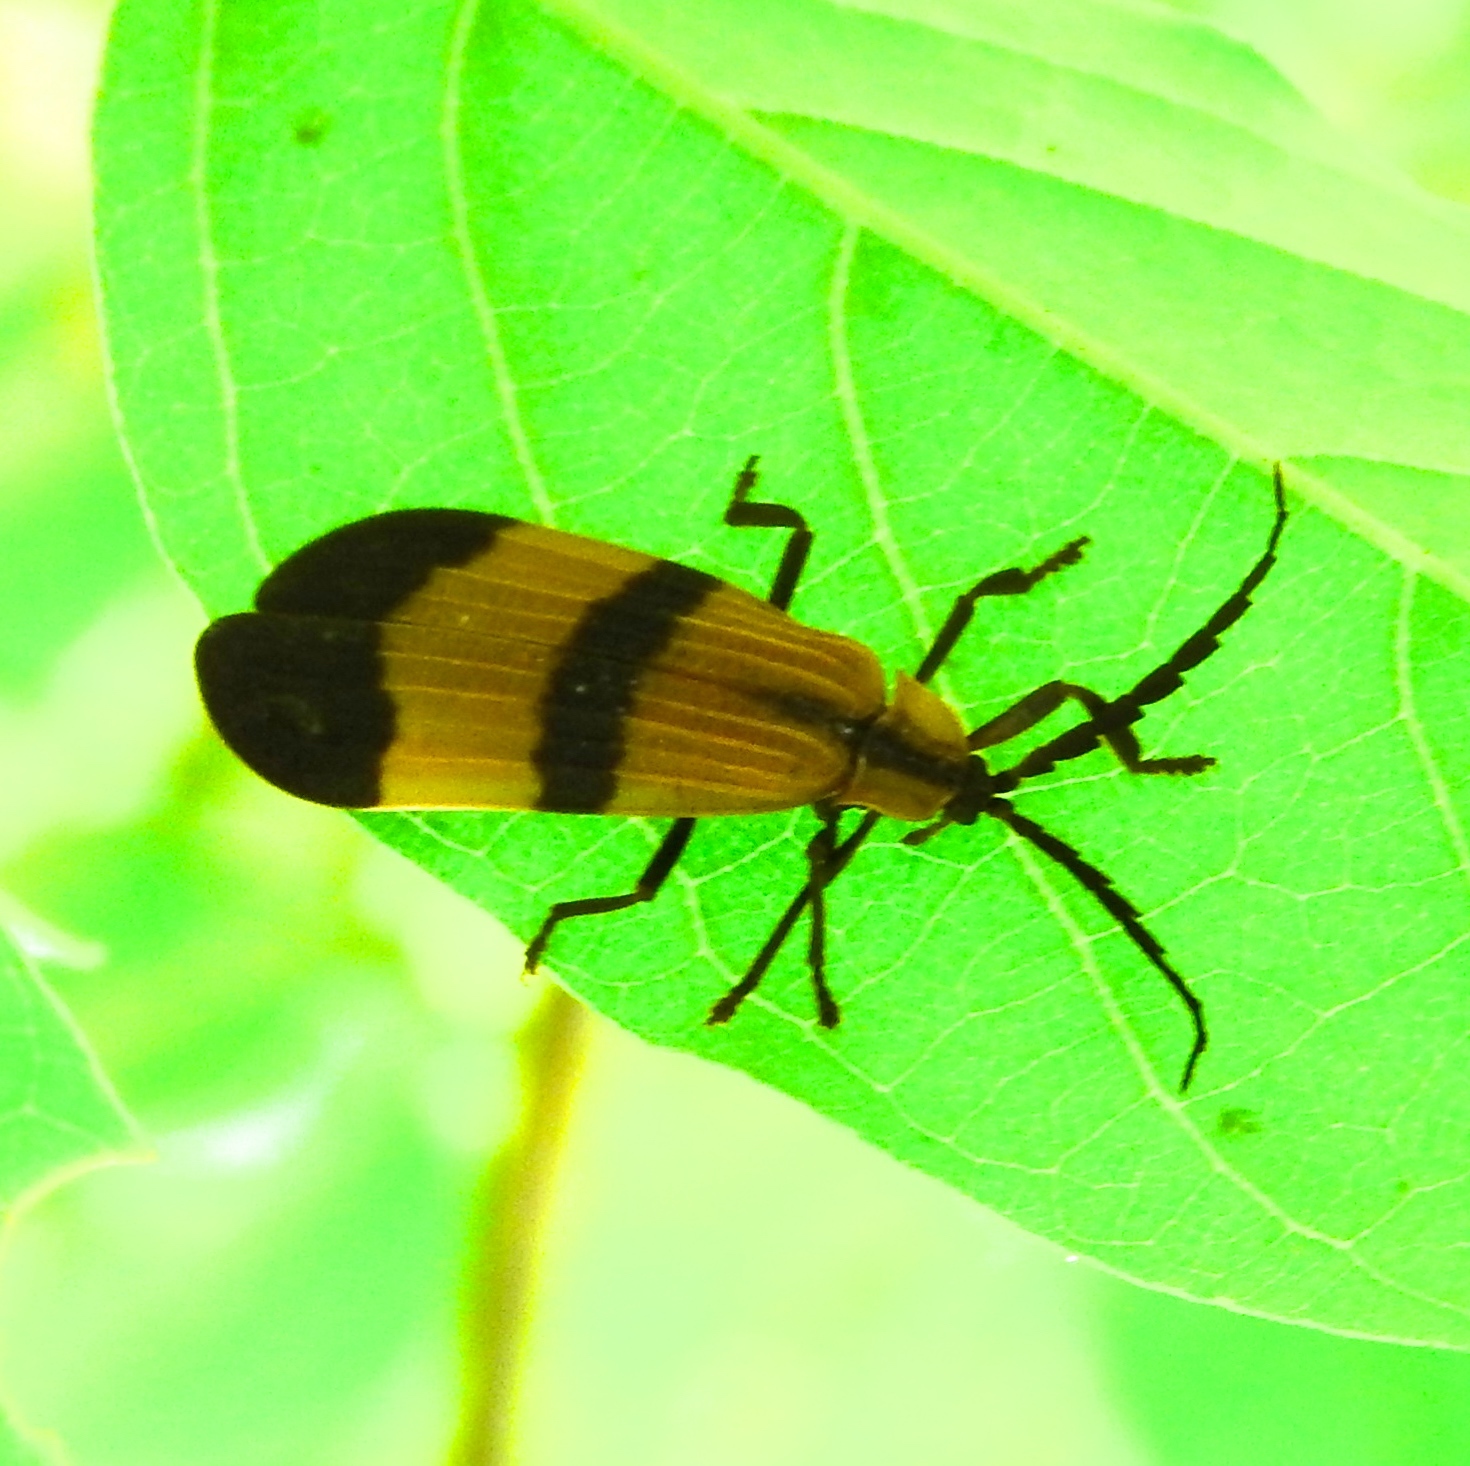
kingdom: Animalia
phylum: Arthropoda
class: Insecta
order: Coleoptera
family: Lycidae
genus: Calopteron
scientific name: Calopteron
